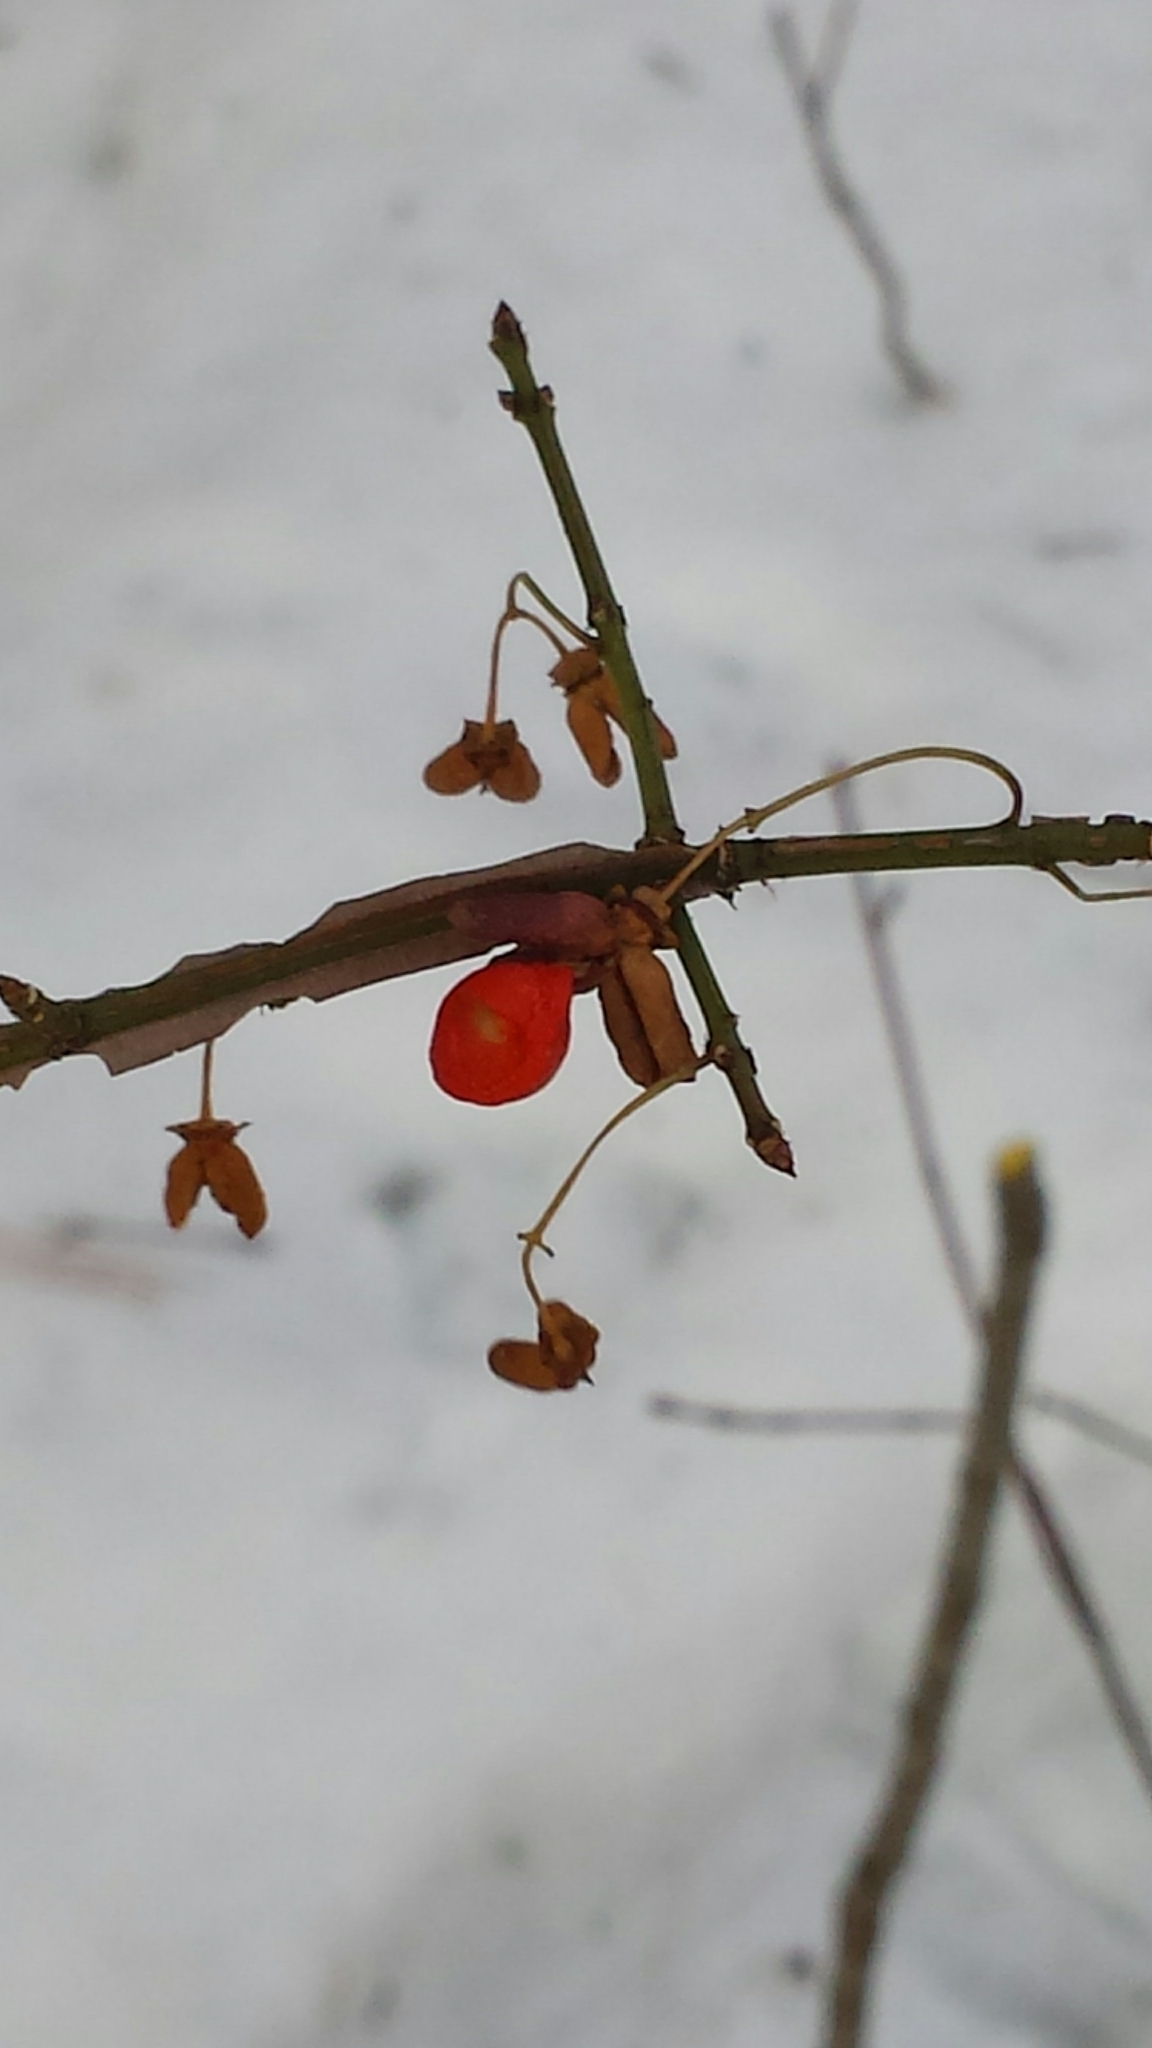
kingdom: Plantae
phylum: Tracheophyta
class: Magnoliopsida
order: Celastrales
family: Celastraceae
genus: Euonymus
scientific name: Euonymus alatus
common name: Winged euonymus
